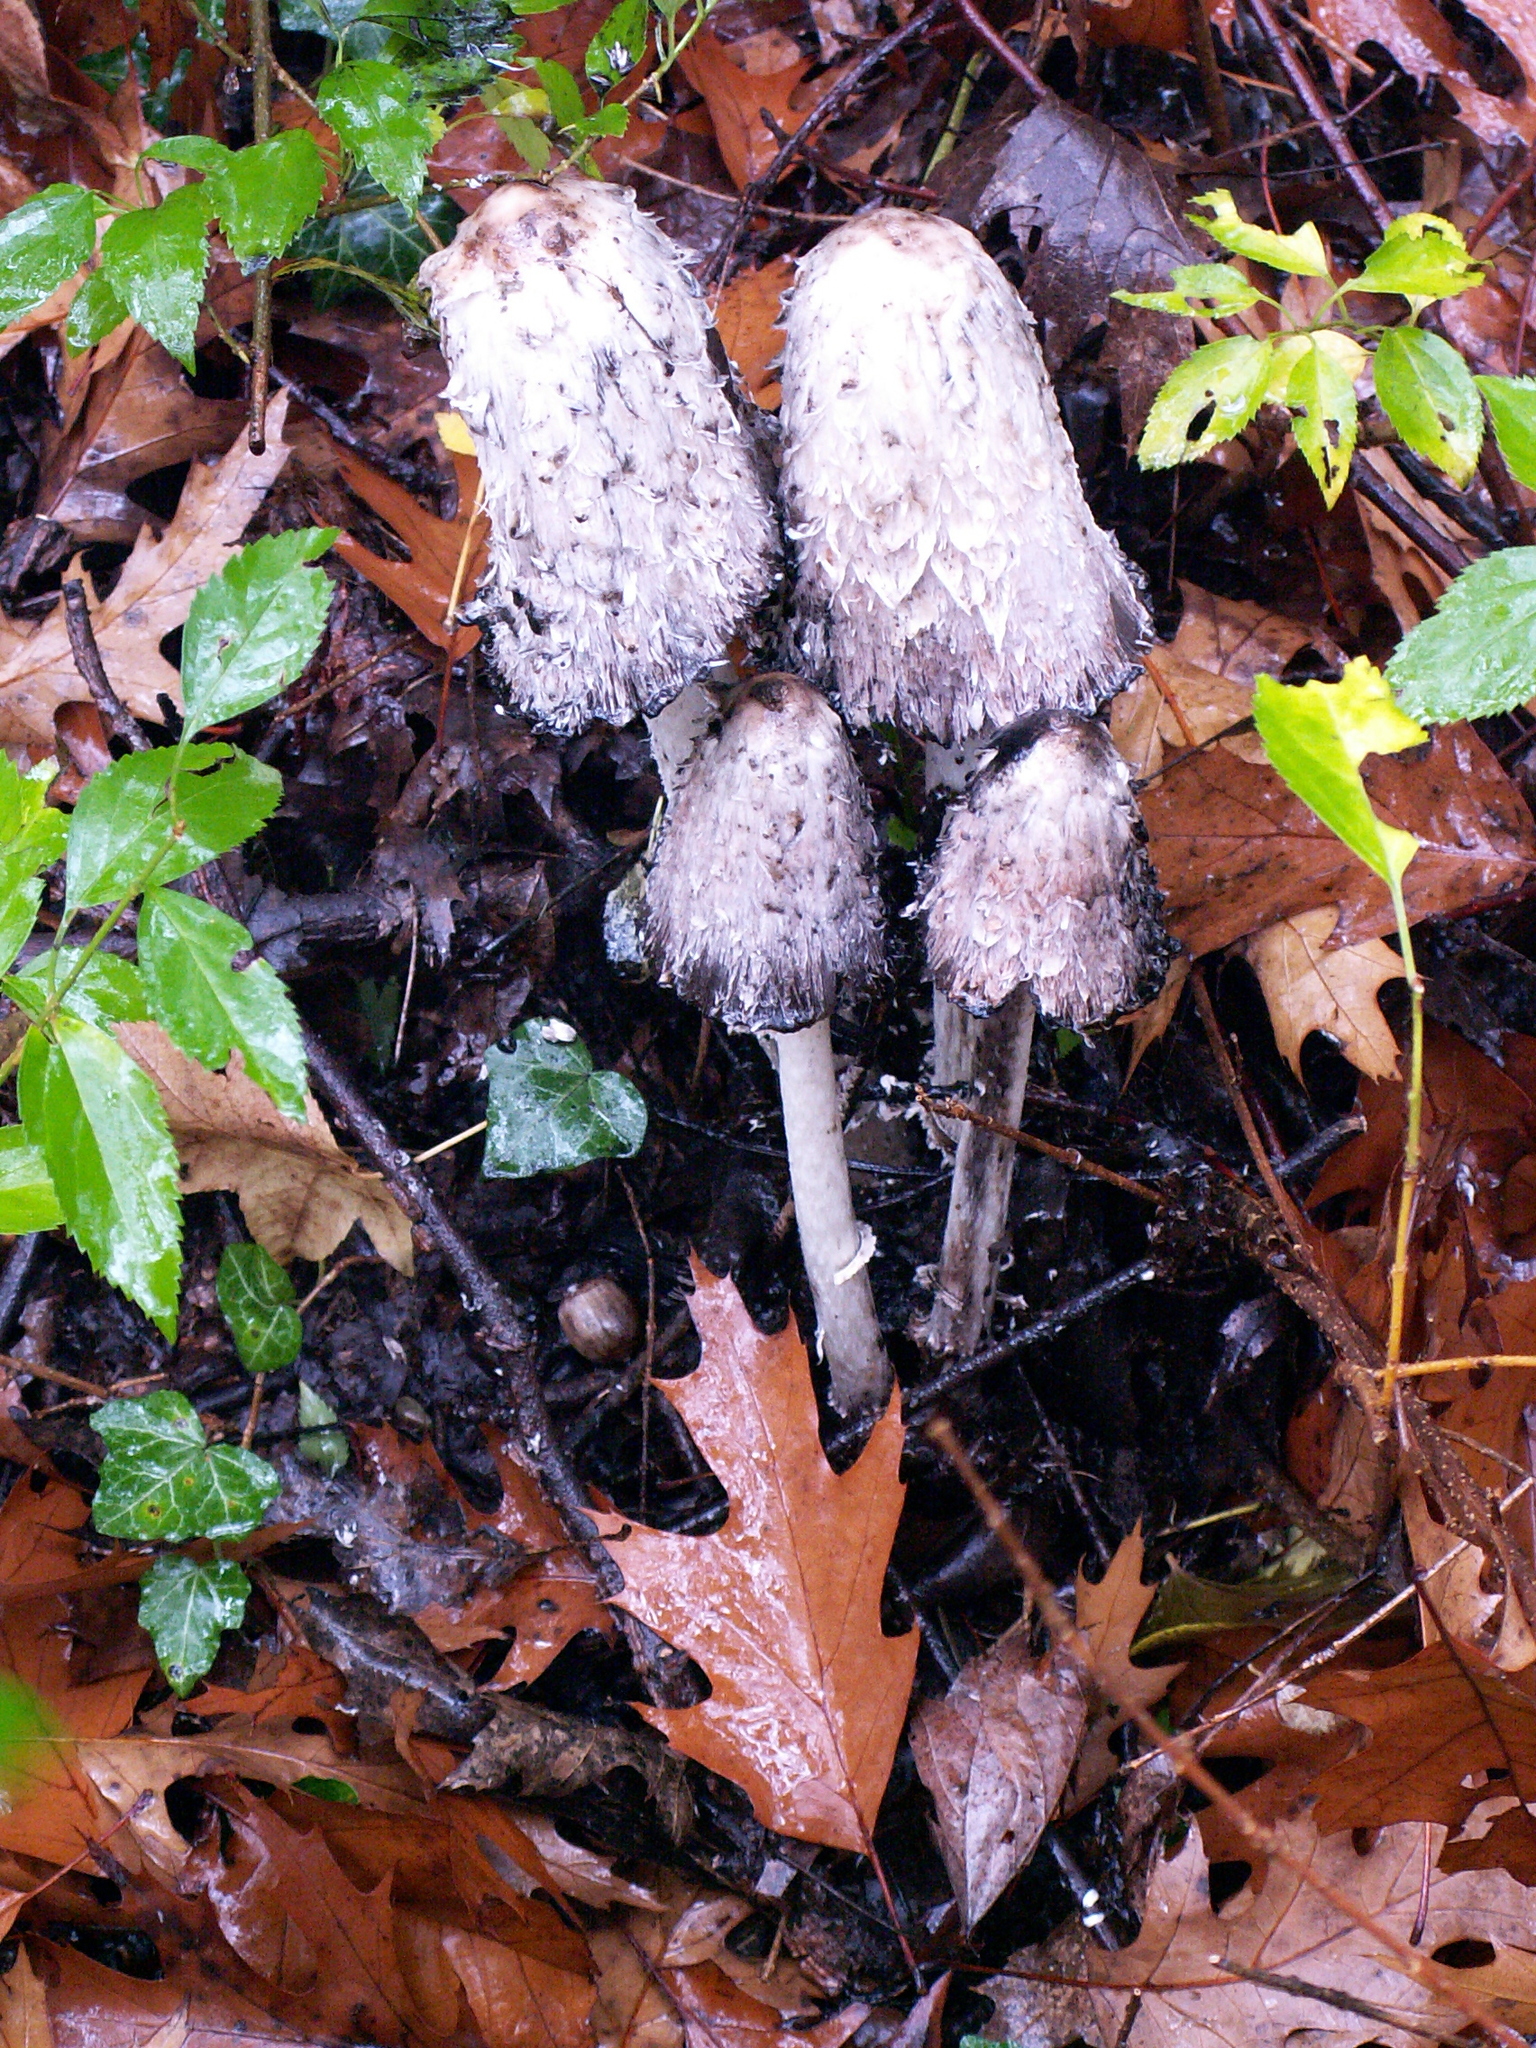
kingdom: Fungi
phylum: Basidiomycota
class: Agaricomycetes
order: Agaricales
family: Agaricaceae
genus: Coprinus
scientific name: Coprinus comatus
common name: Lawyer's wig
